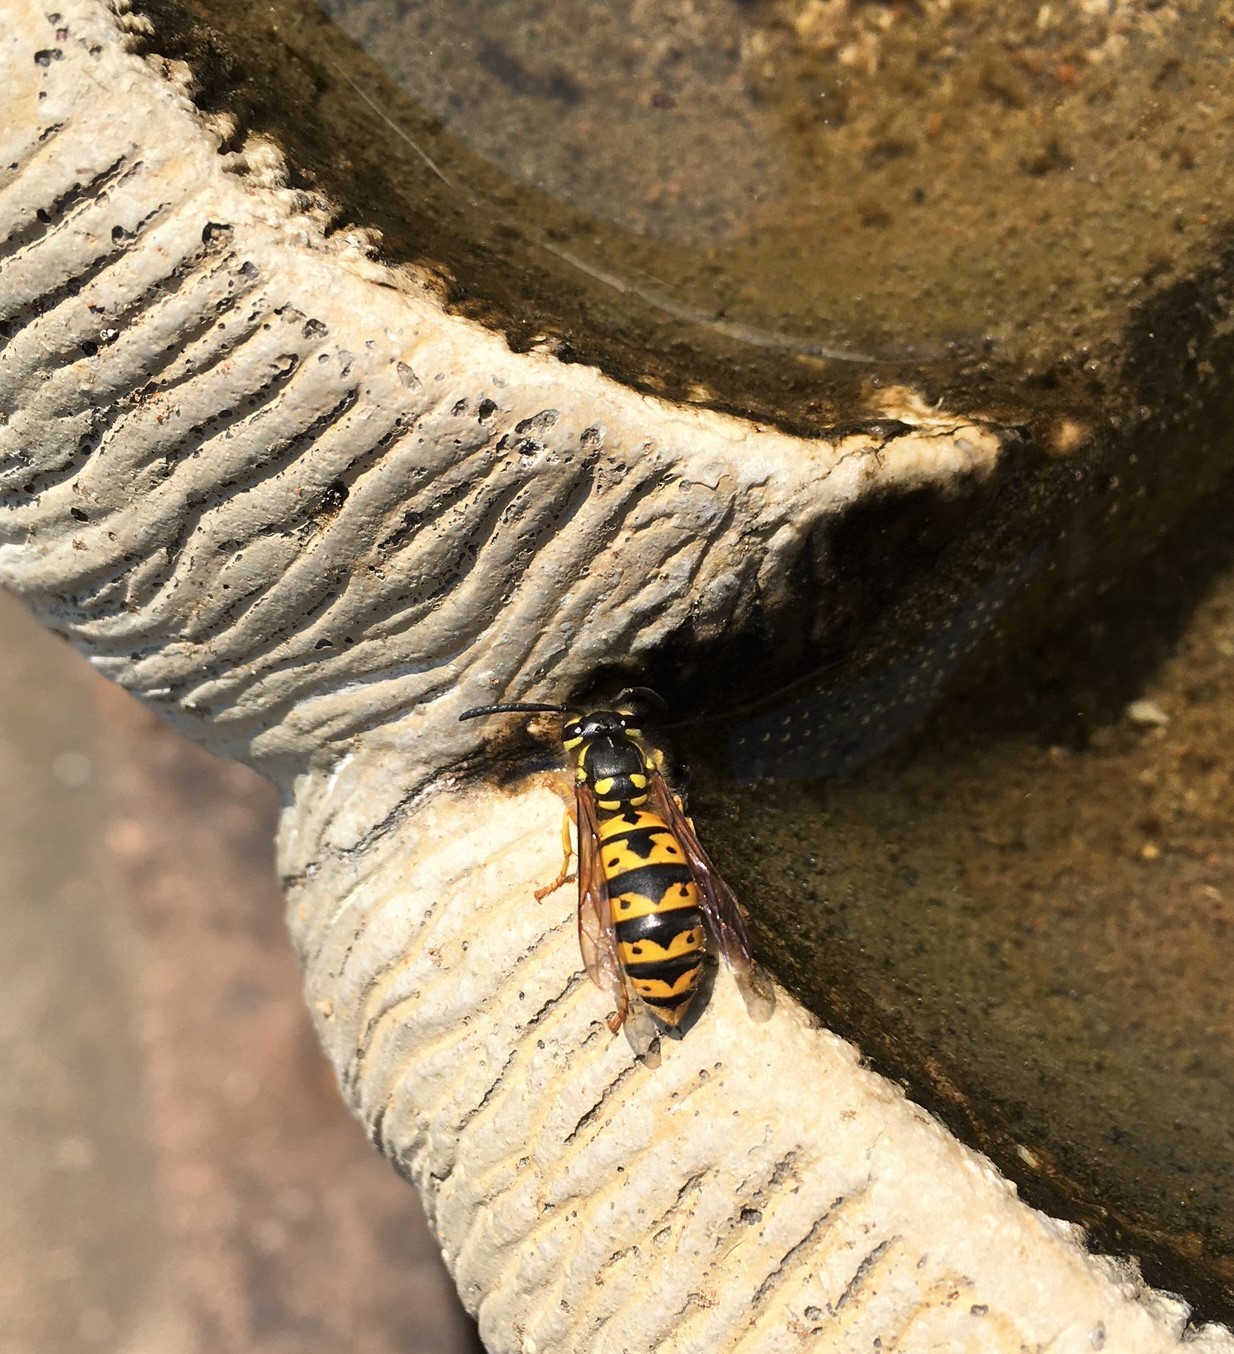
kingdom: Animalia
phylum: Arthropoda
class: Insecta
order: Hymenoptera
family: Vespidae
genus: Vespula
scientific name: Vespula germanica
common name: German wasp
